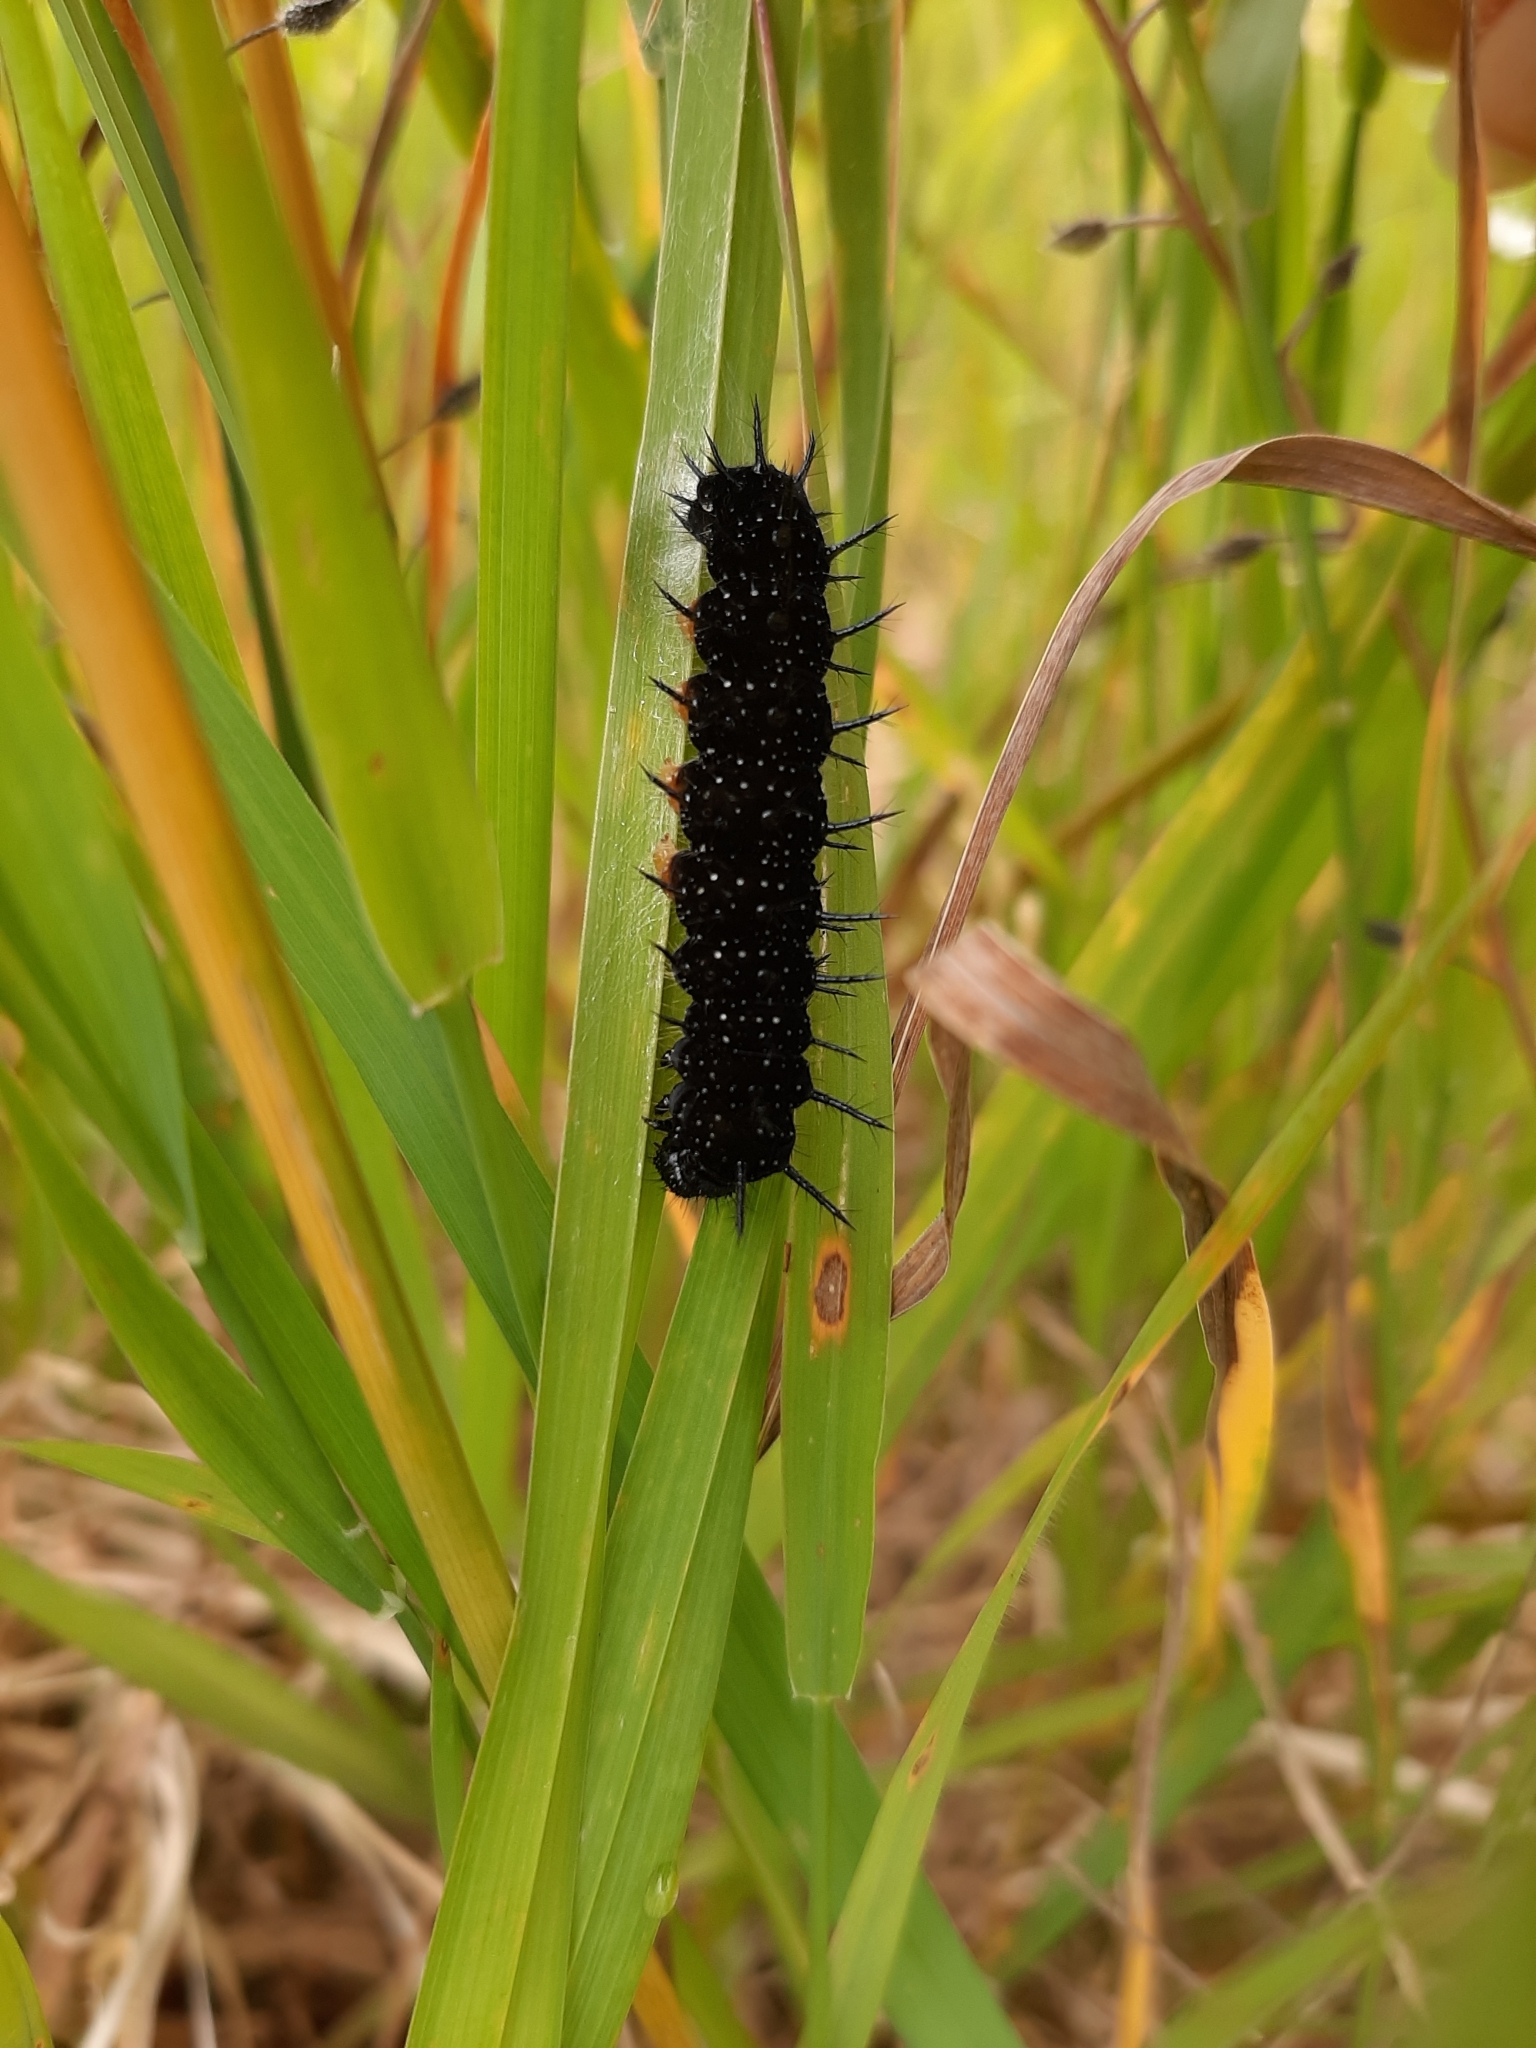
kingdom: Animalia
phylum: Arthropoda
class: Insecta
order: Lepidoptera
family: Nymphalidae
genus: Aglais
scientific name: Aglais io
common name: Peacock
